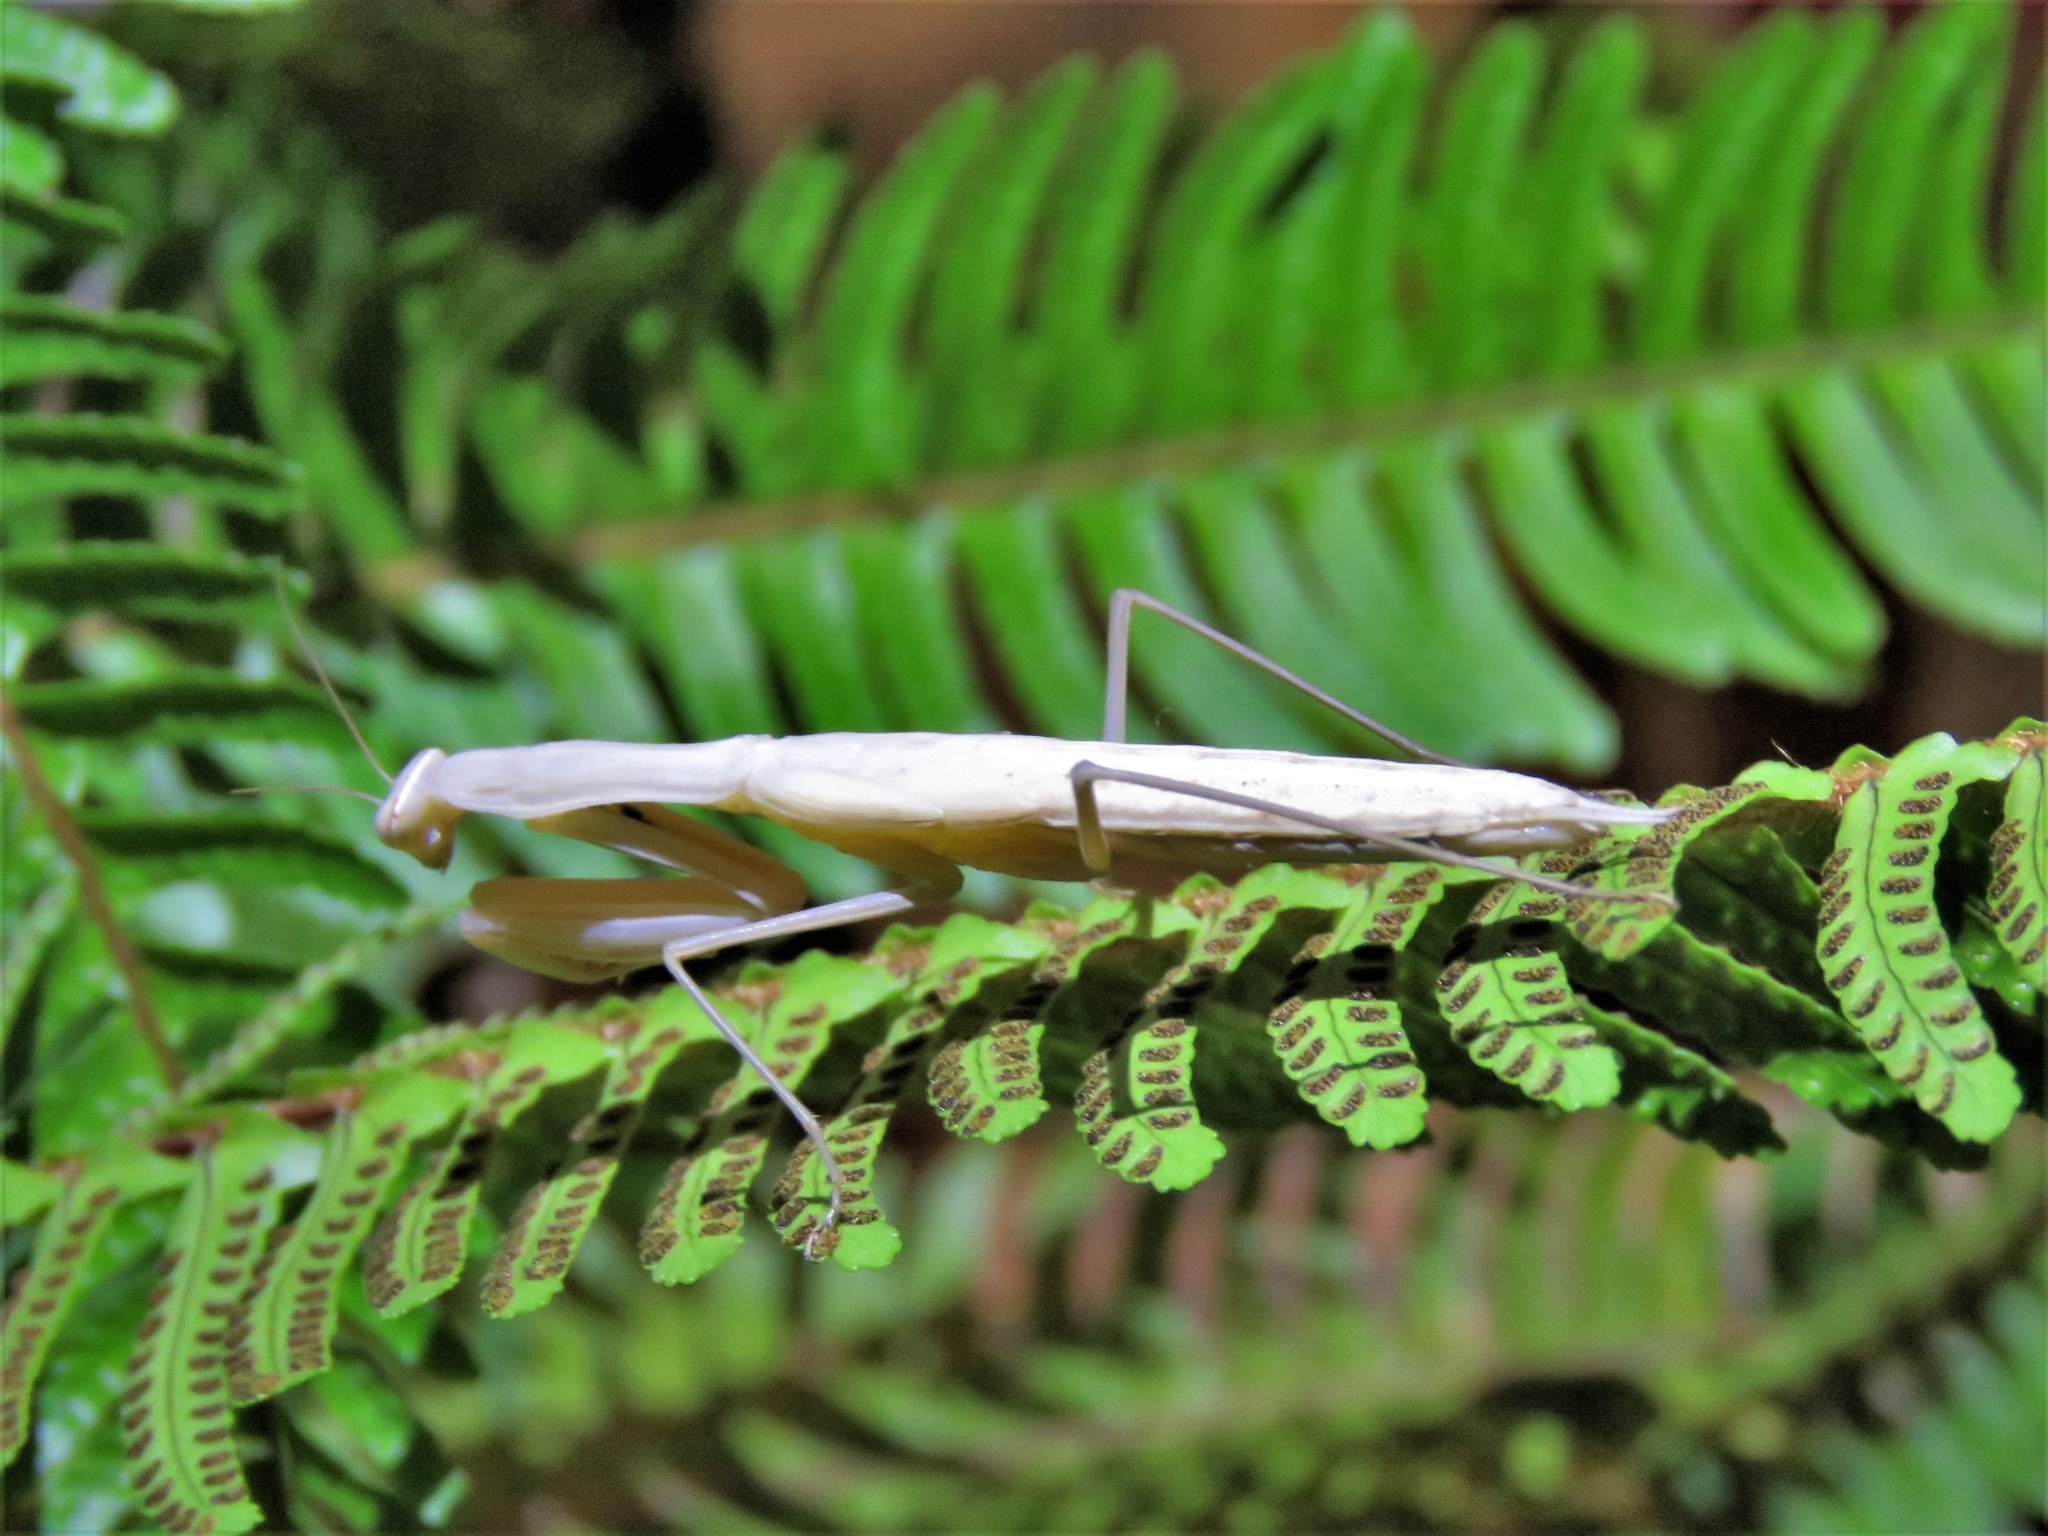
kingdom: Animalia
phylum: Arthropoda
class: Insecta
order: Mantodea
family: Mantidae
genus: Mantis
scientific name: Mantis religiosa
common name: Praying mantis
